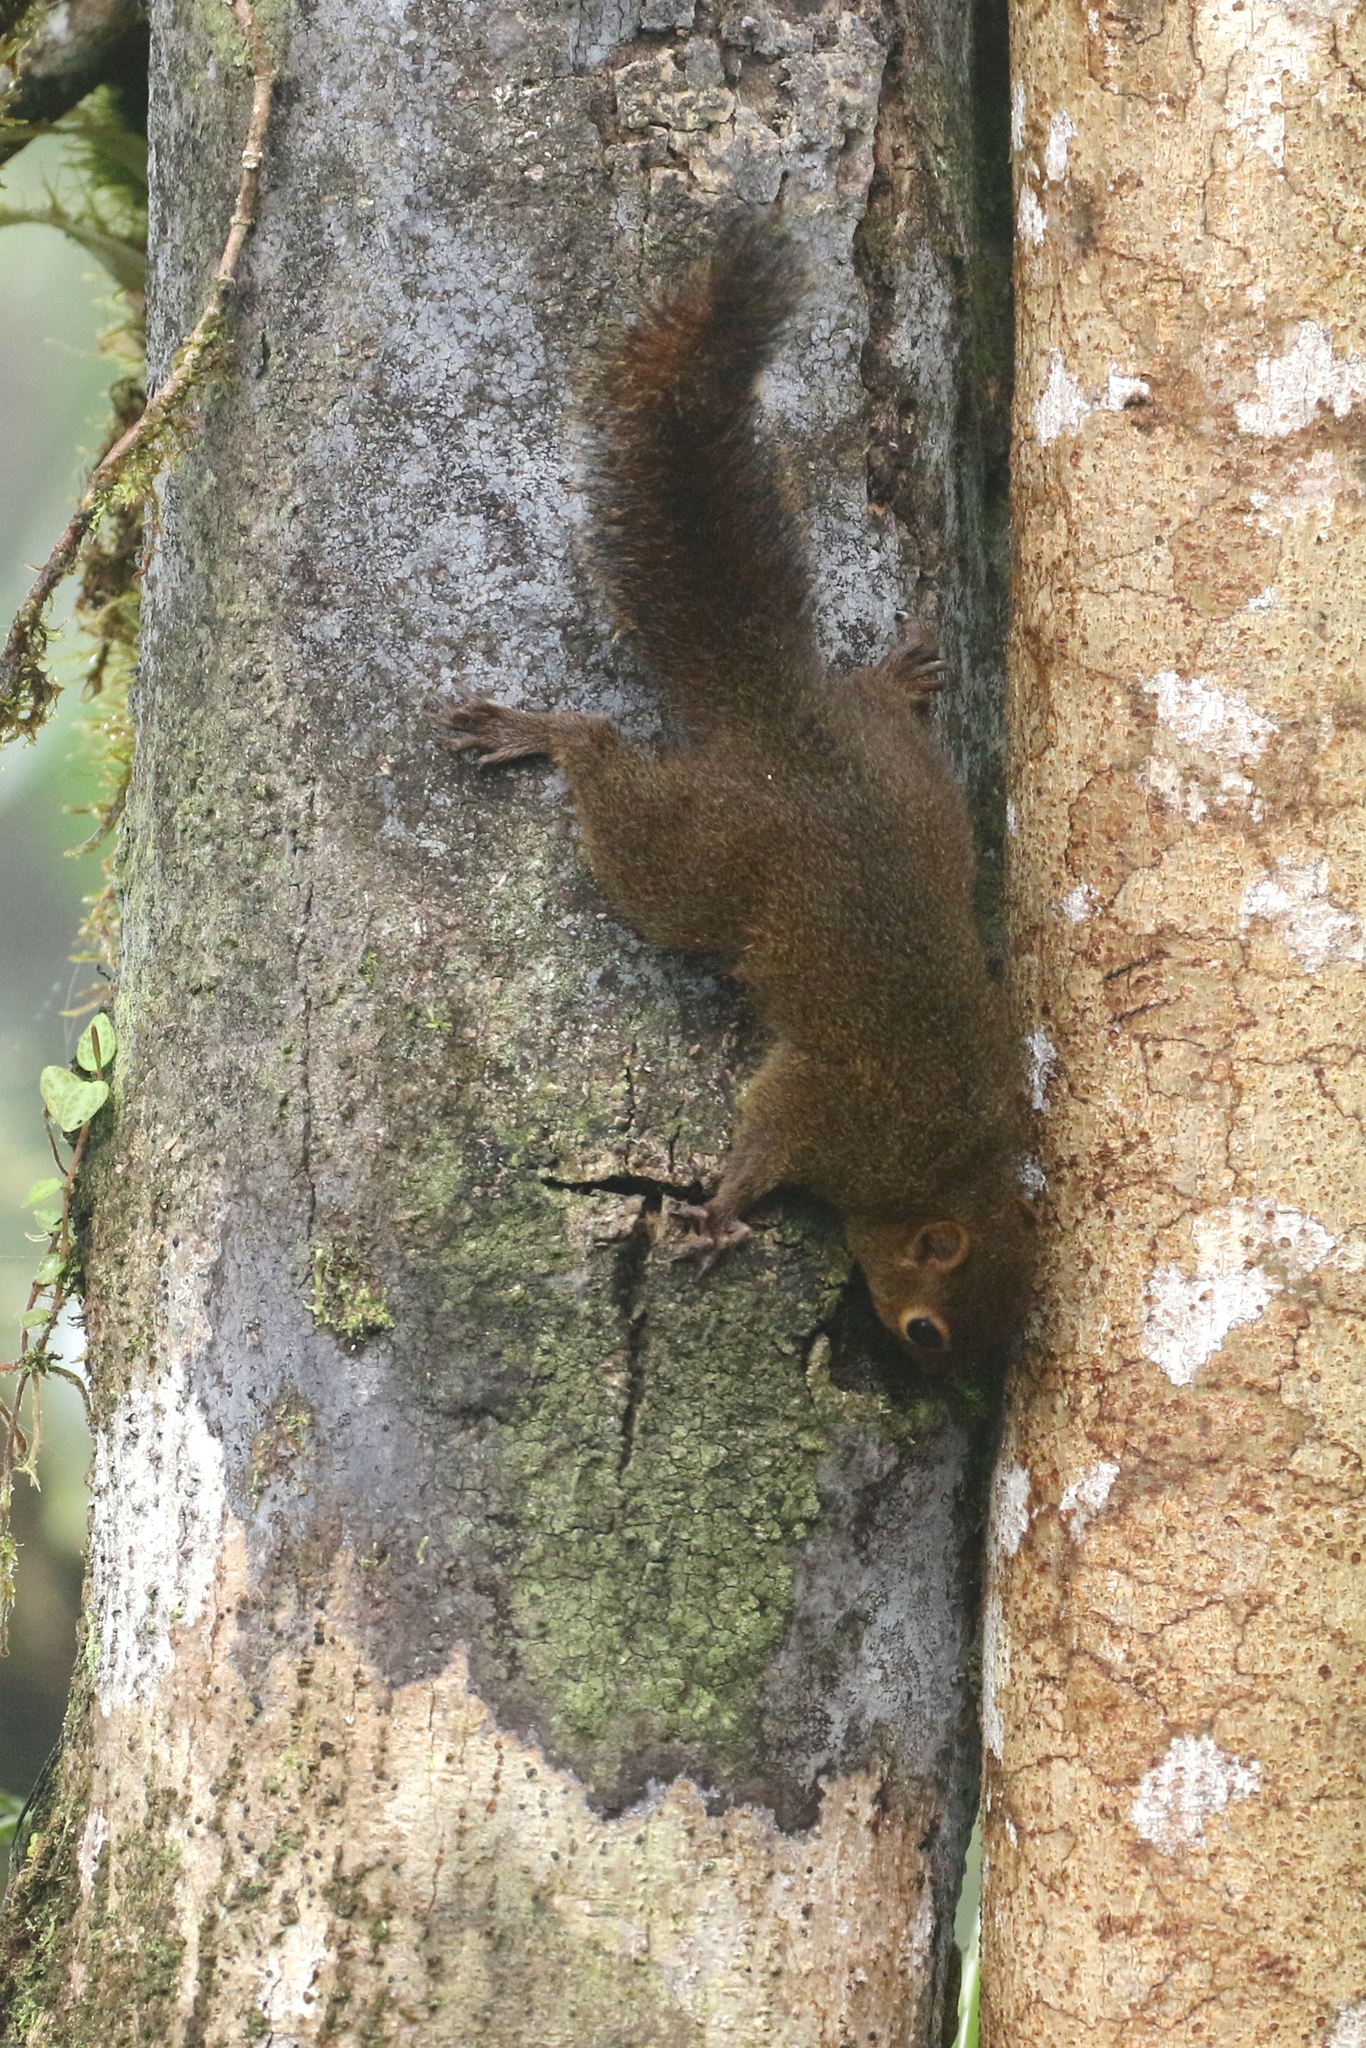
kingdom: Animalia
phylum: Chordata
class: Mammalia
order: Rodentia
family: Sciuridae
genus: Microsciurus
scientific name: Microsciurus mimulus
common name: Western dwarf squirrel
